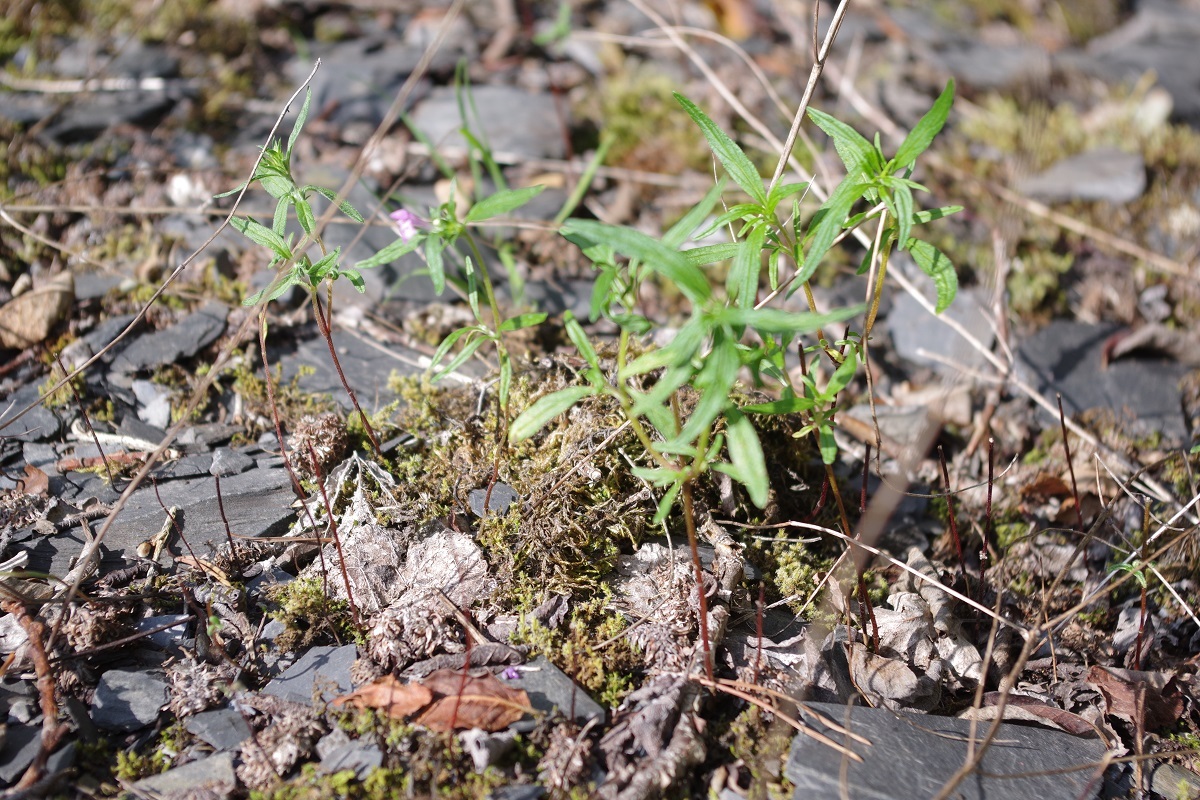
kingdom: Plantae
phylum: Tracheophyta
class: Magnoliopsida
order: Lamiales
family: Lamiaceae
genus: Galeopsis
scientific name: Galeopsis angustifolia
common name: Red hemp-nettle
